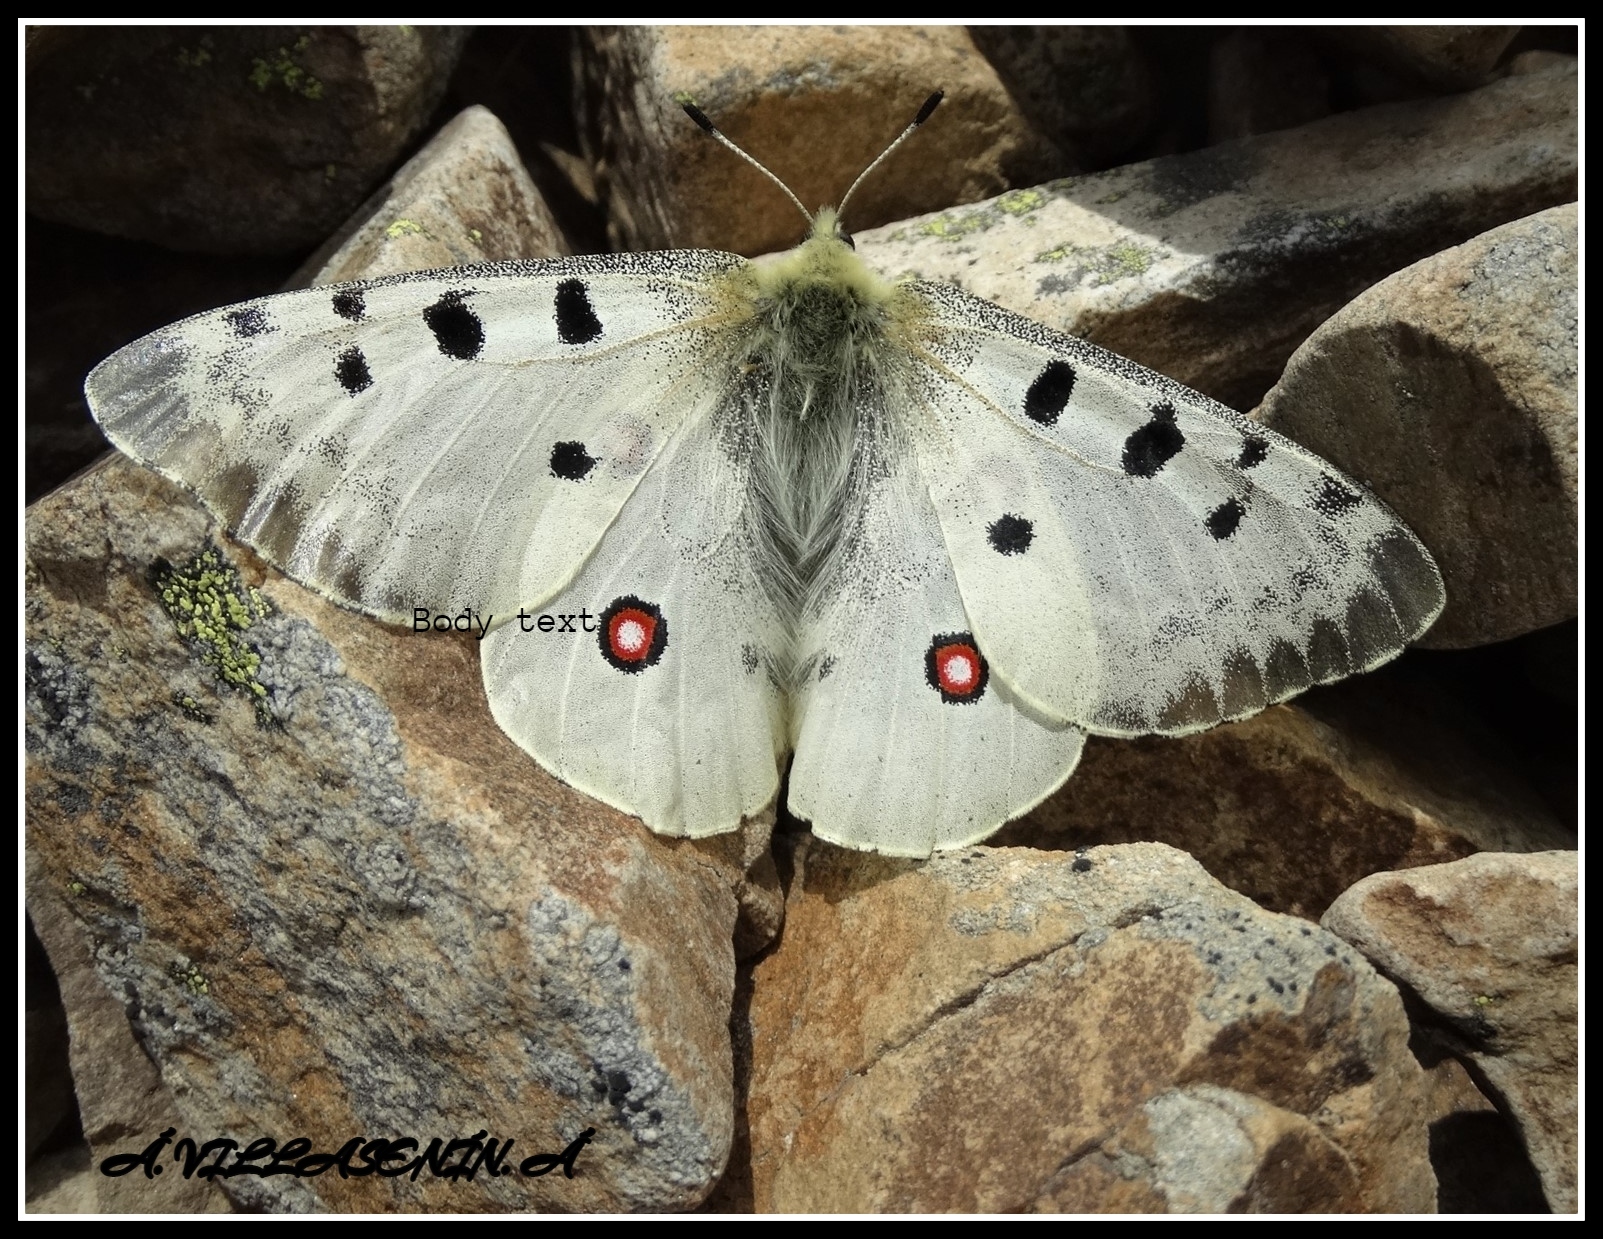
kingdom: Animalia
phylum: Arthropoda
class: Insecta
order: Lepidoptera
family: Papilionidae
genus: Parnassius
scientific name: Parnassius apollo
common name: Apollo
